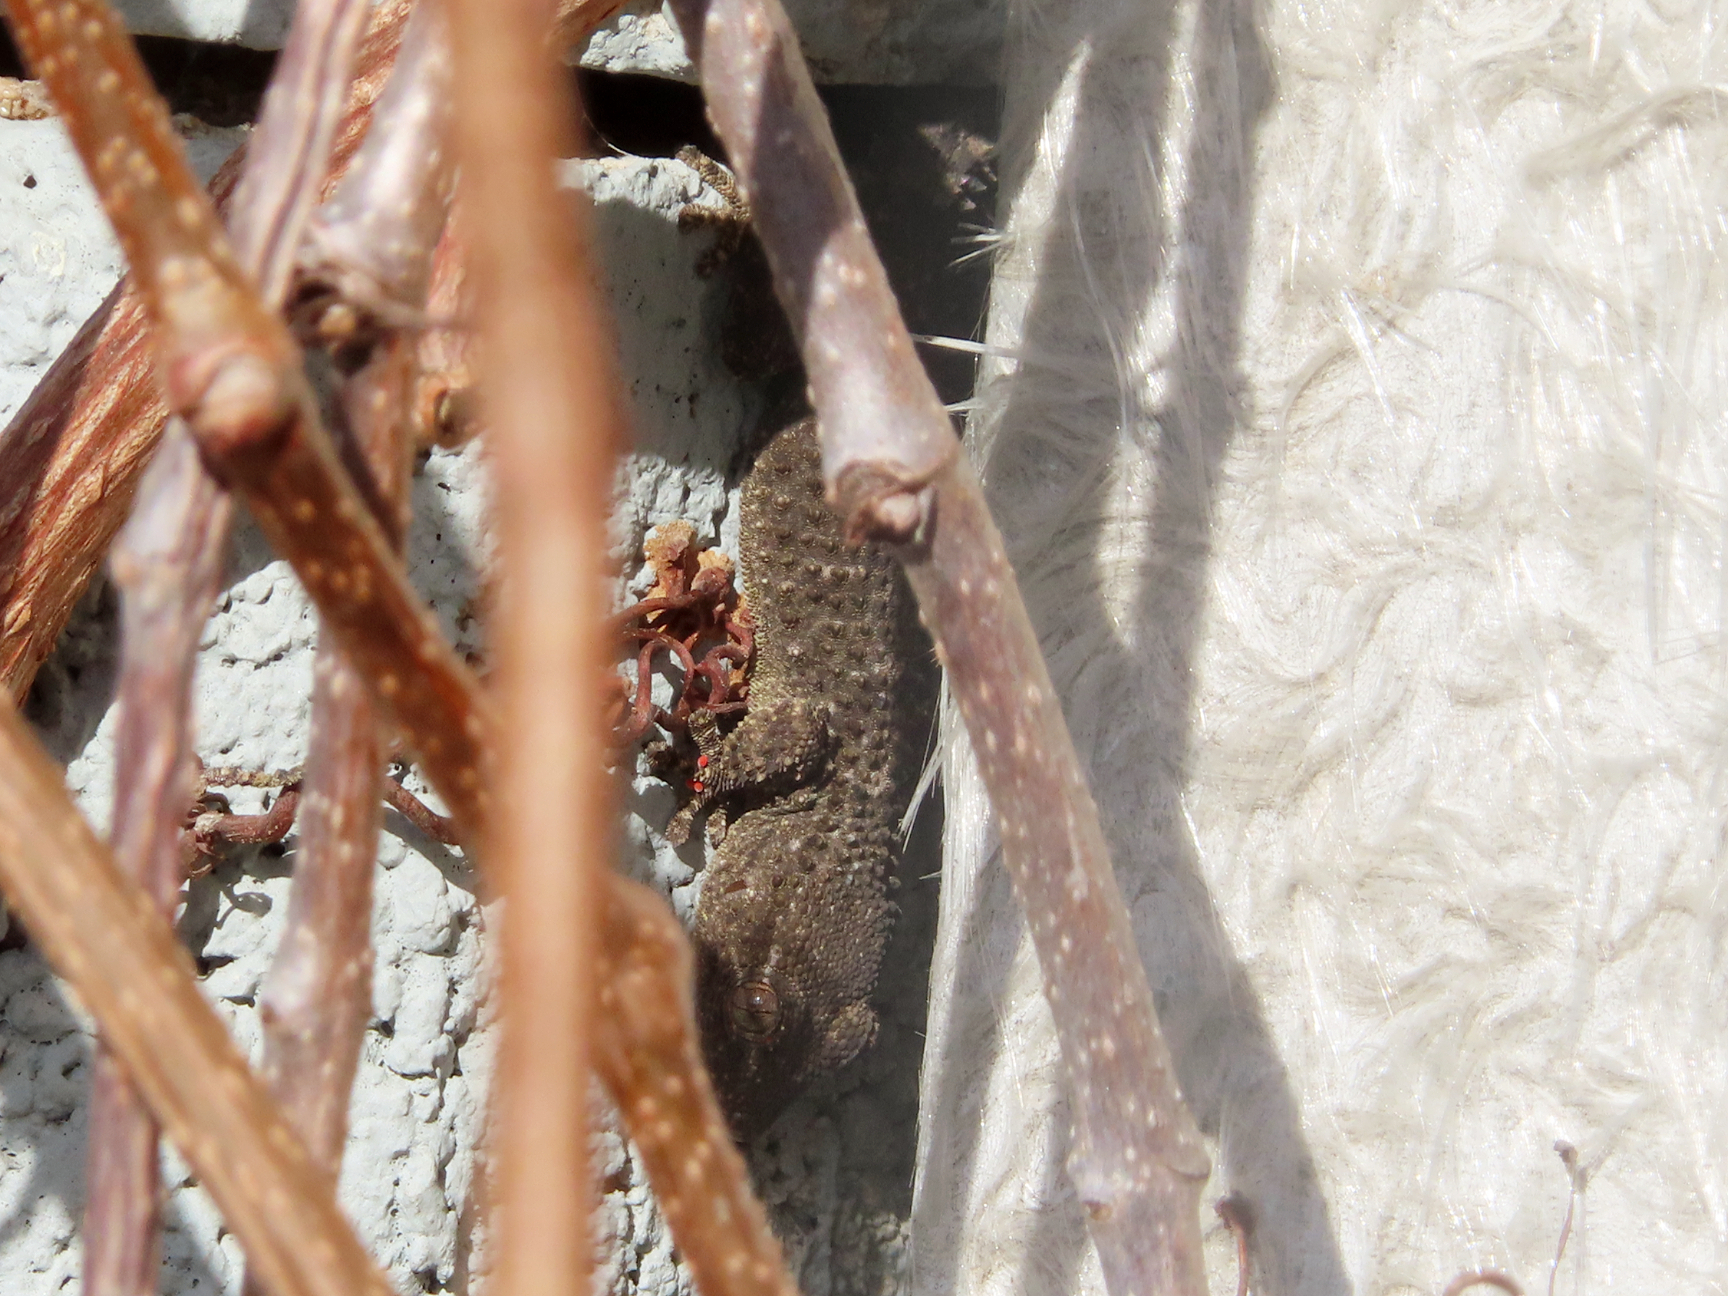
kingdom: Animalia
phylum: Chordata
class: Squamata
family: Phyllodactylidae
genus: Tarentola
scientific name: Tarentola mauritanica
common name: Moorish gecko
